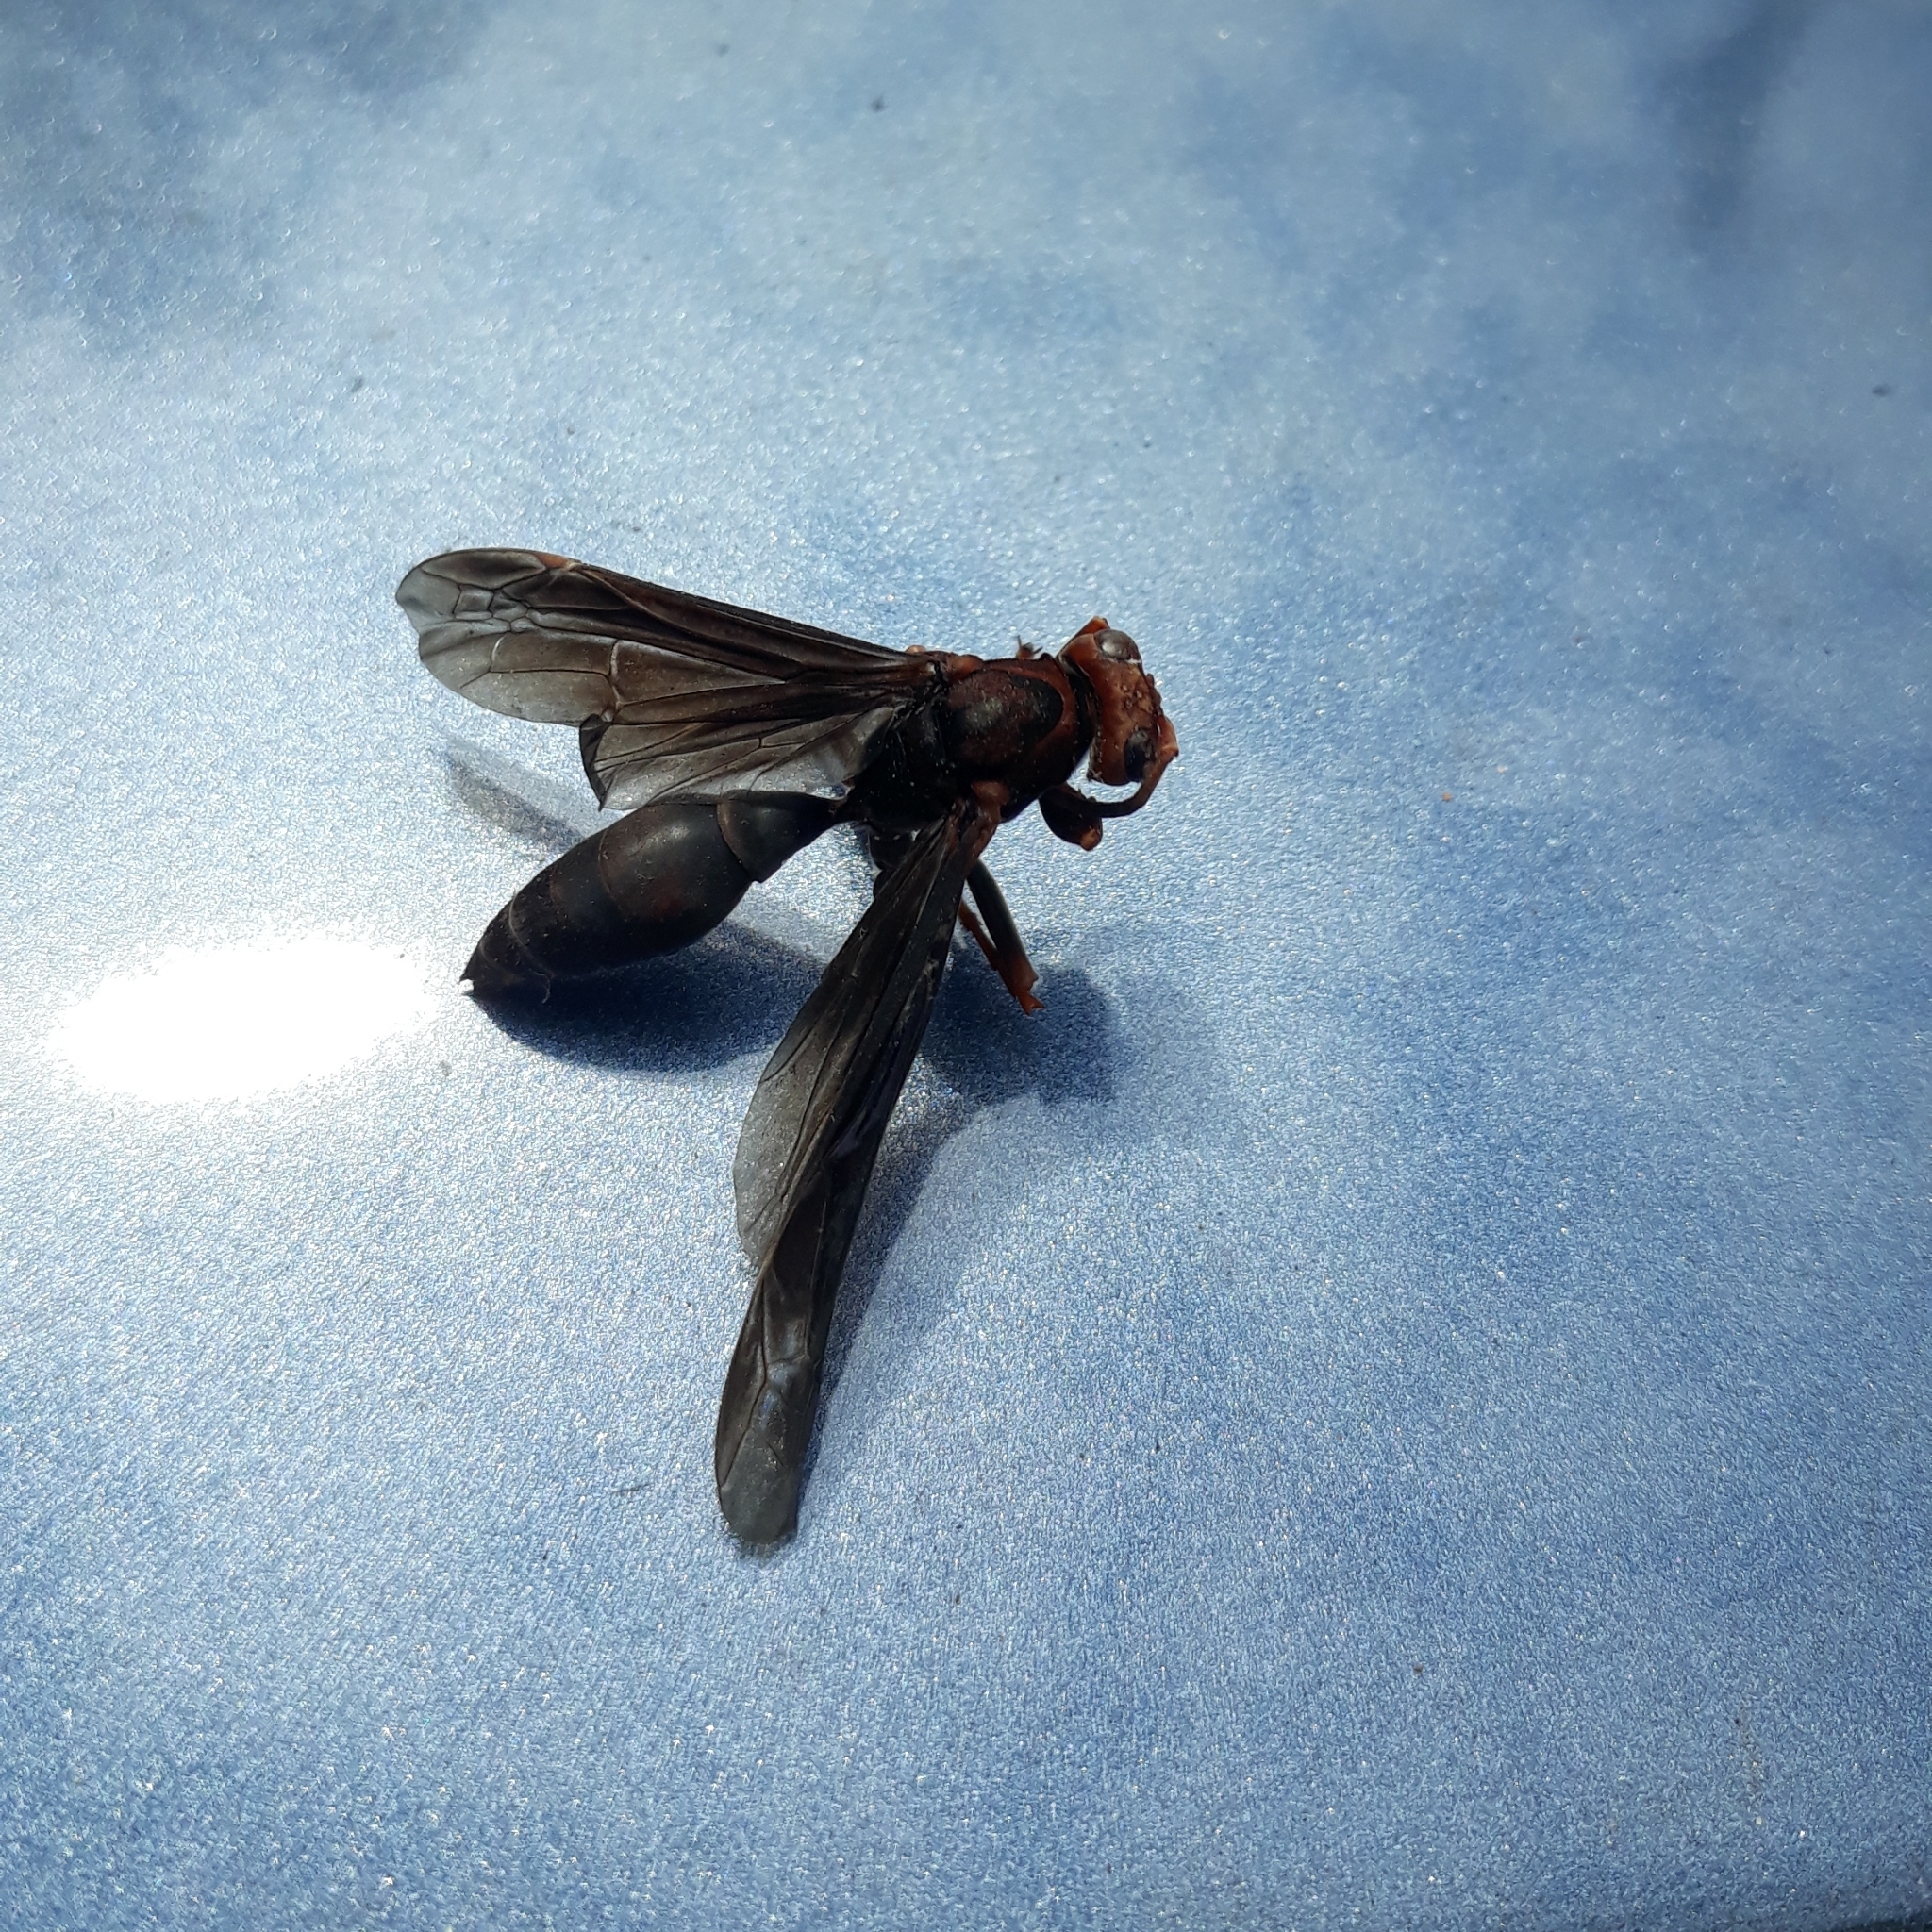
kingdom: Animalia
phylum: Arthropoda
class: Insecta
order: Hymenoptera
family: Eumenidae
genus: Polistes
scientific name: Polistes ferreri
